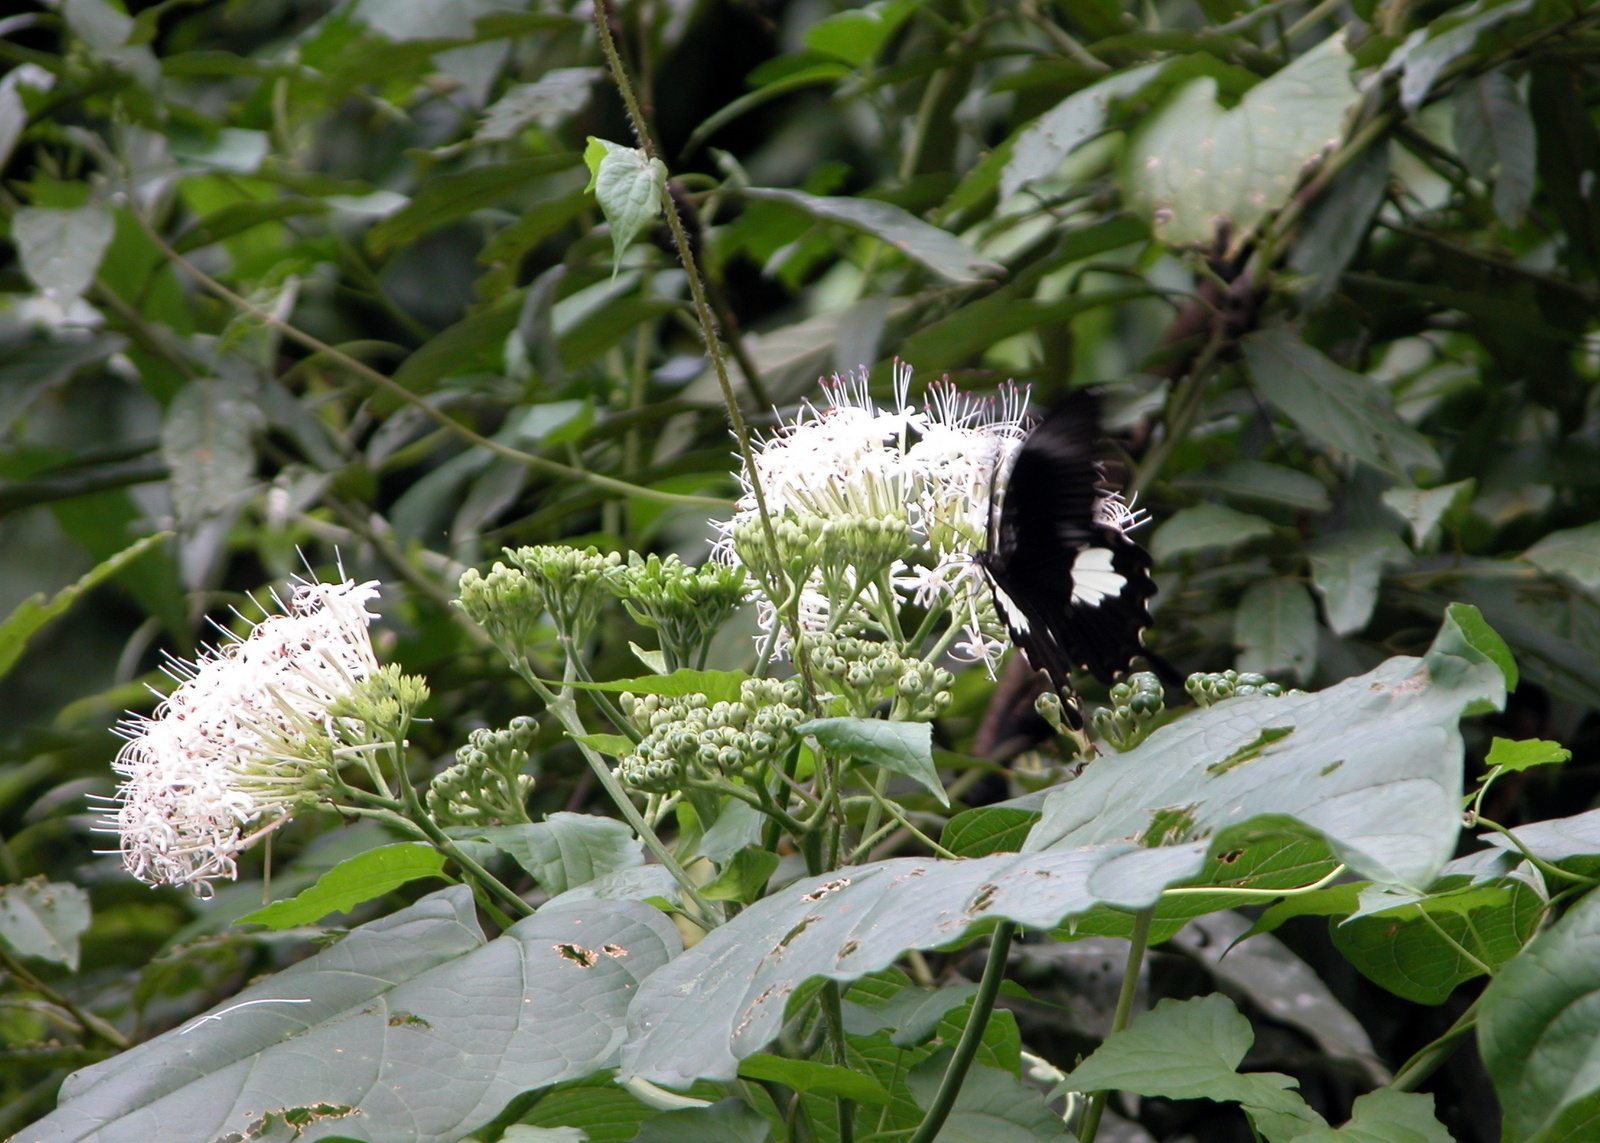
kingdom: Animalia
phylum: Arthropoda
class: Insecta
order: Lepidoptera
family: Papilionidae
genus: Papilio
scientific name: Papilio nephelus
